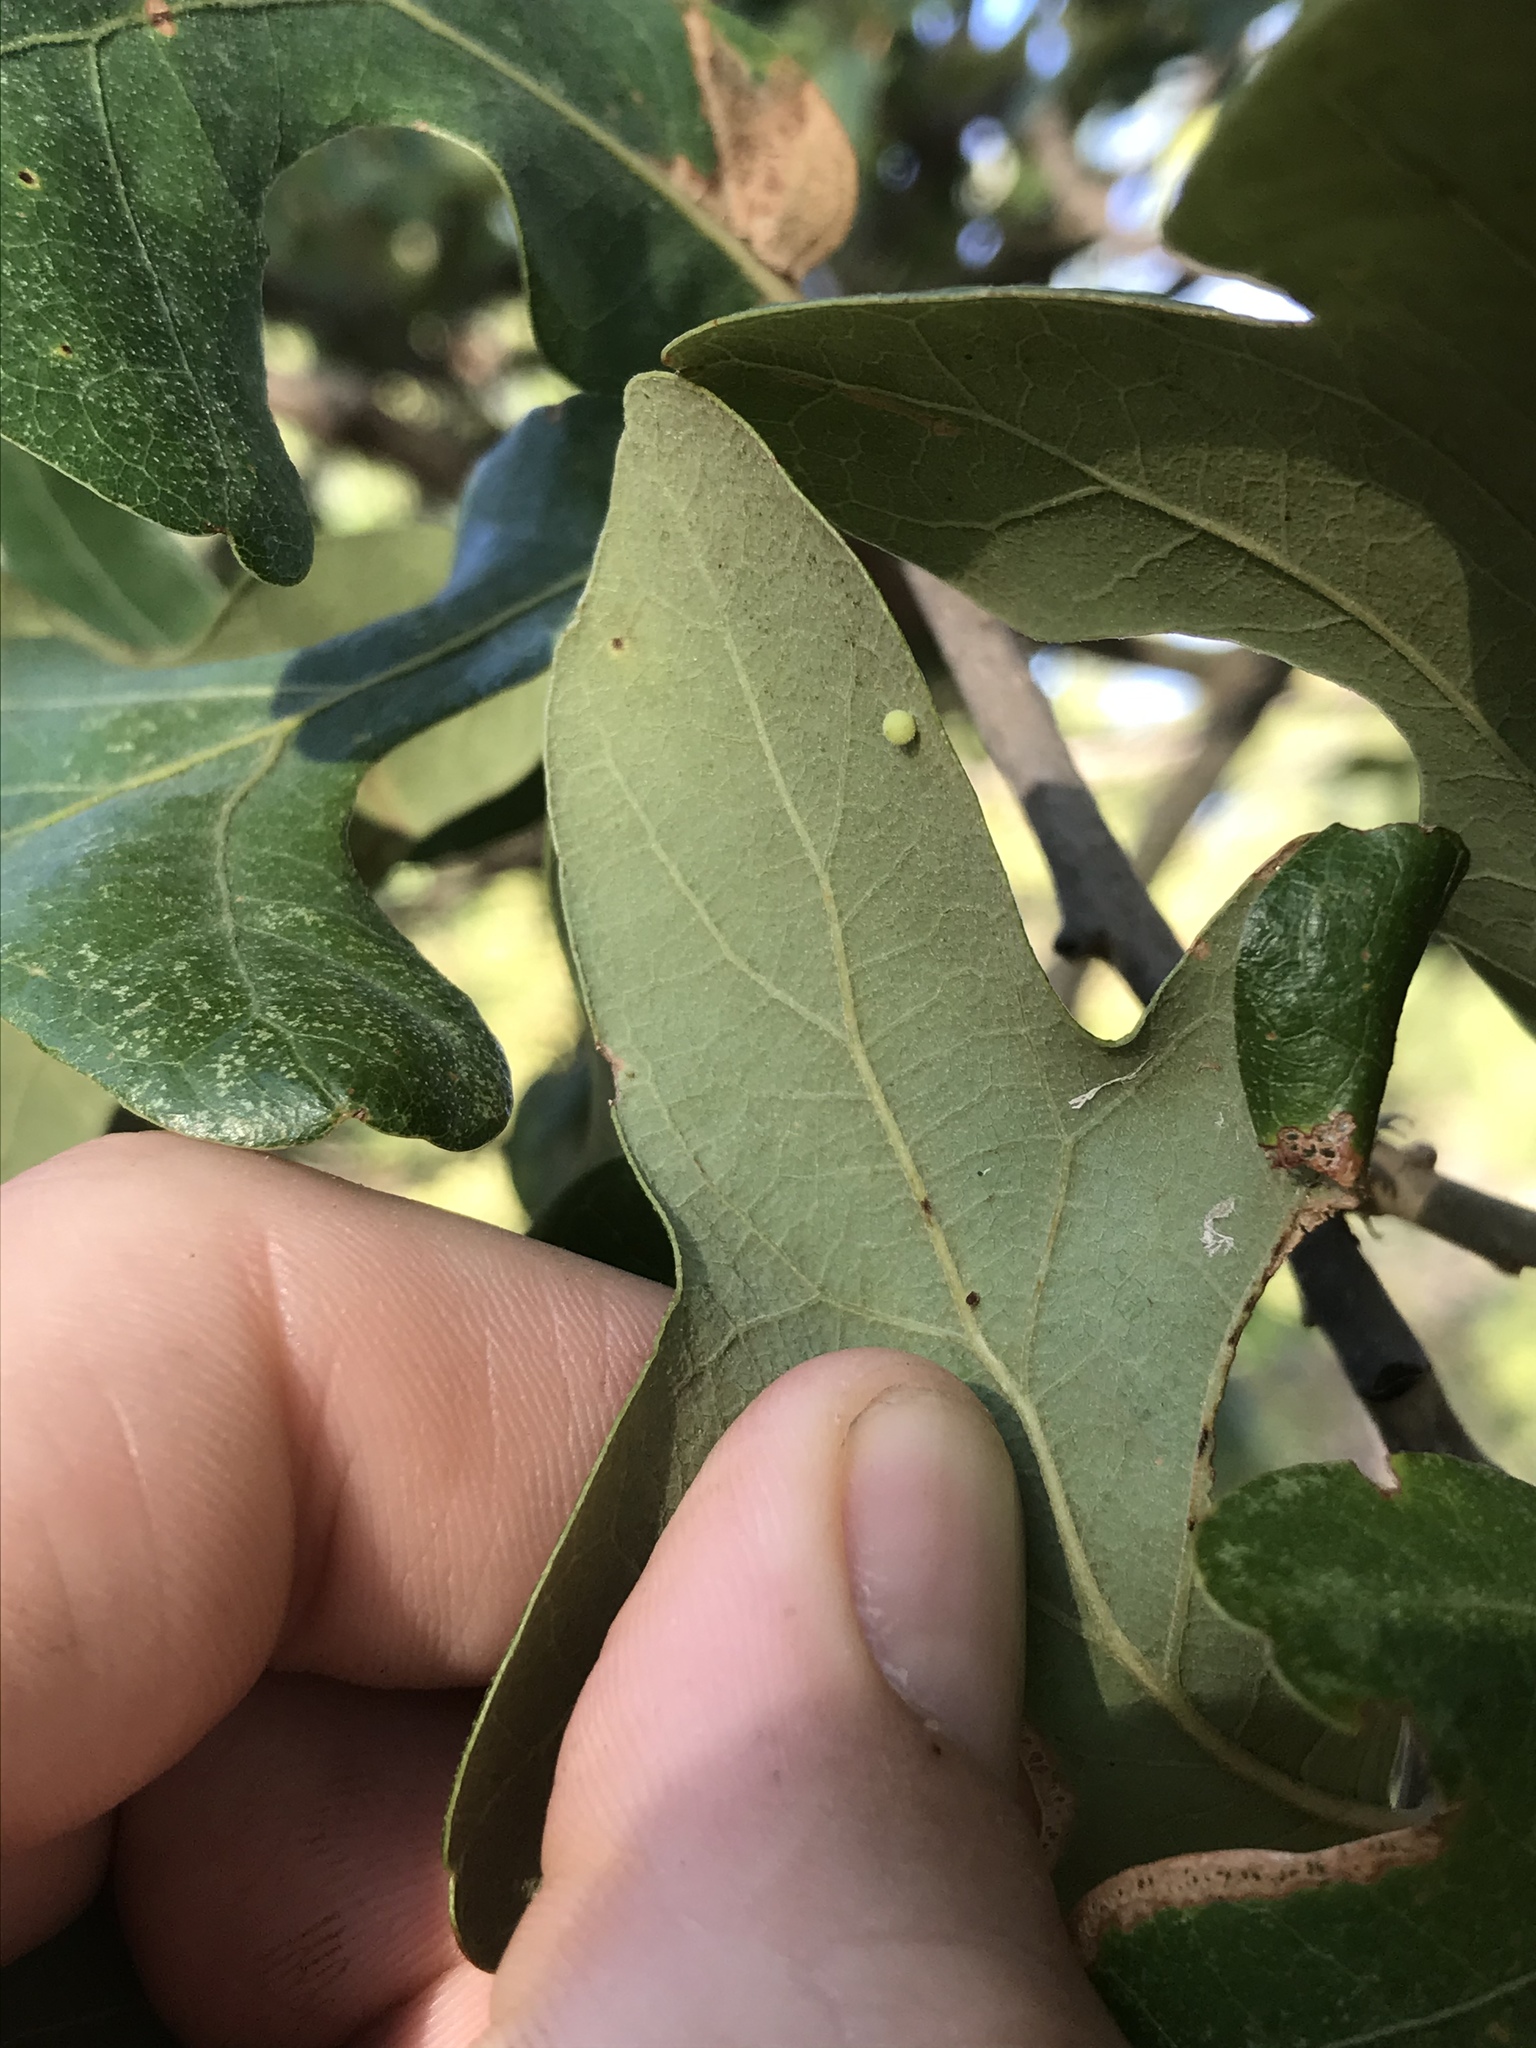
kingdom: Animalia
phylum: Arthropoda
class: Insecta
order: Hymenoptera
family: Cynipidae
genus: Neuroterus
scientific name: Neuroterus saltarius
